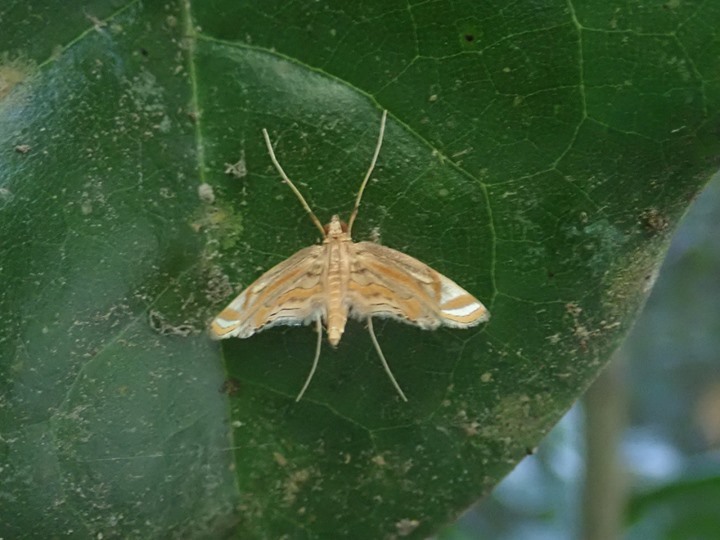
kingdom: Animalia
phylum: Arthropoda
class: Insecta
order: Lepidoptera
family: Crambidae
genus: Eoophyla
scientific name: Eoophyla gibbosalis
